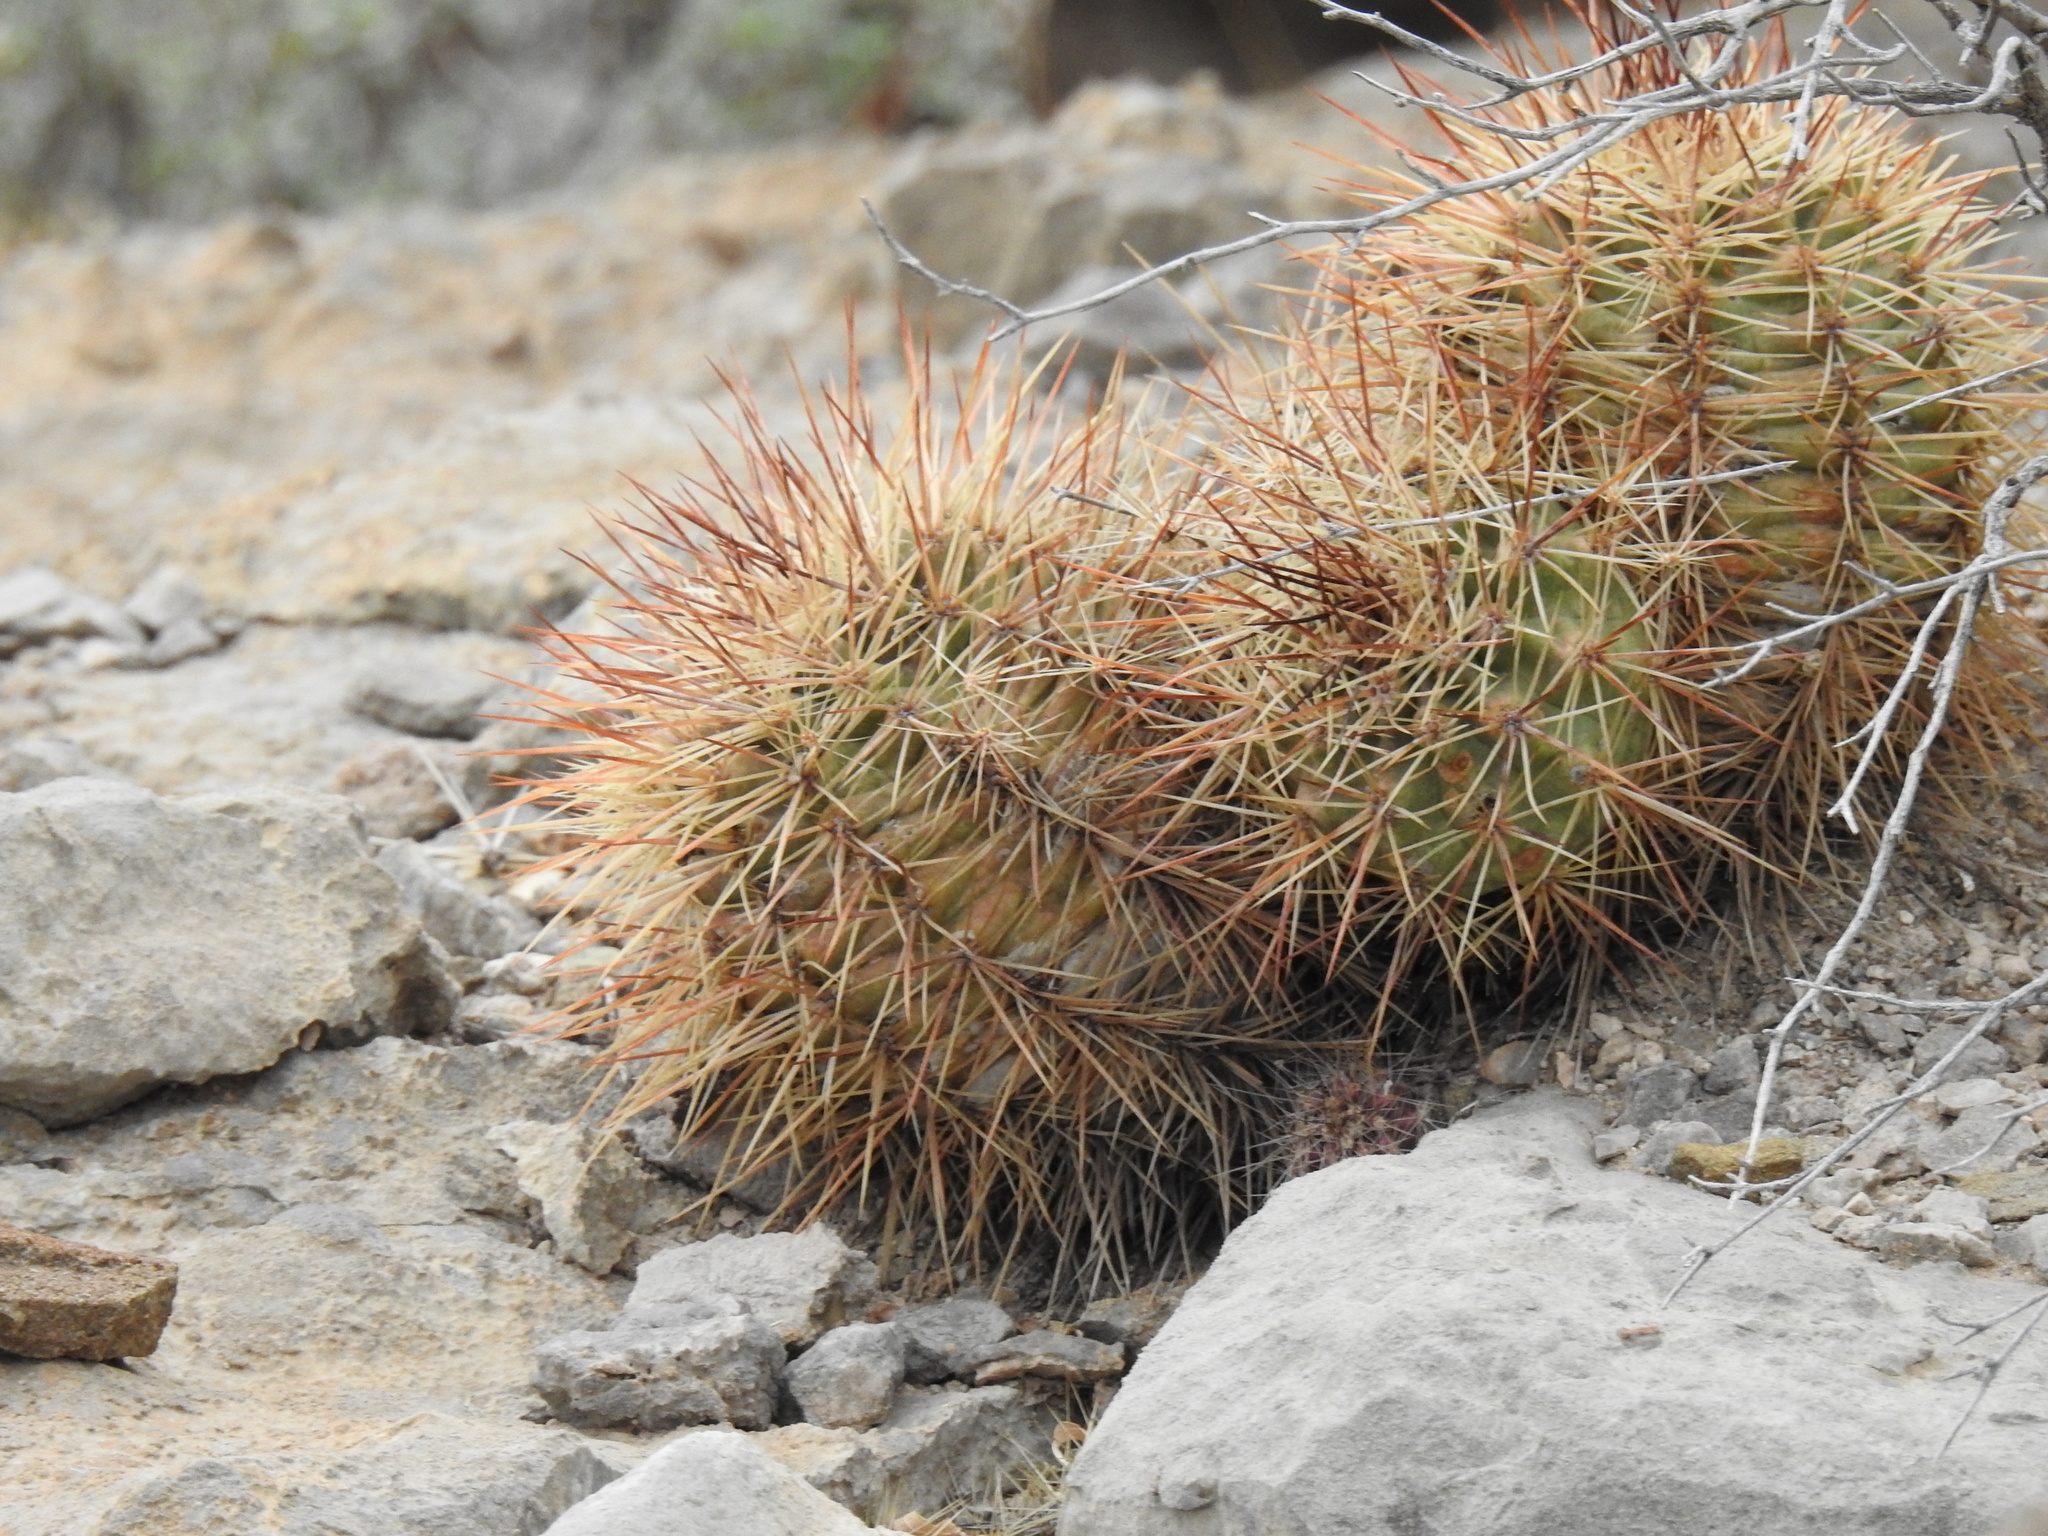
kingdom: Plantae
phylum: Tracheophyta
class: Magnoliopsida
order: Caryophyllales
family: Cactaceae
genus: Echinocereus
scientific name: Echinocereus coccineus
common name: Scarlet hedgehog cactus
